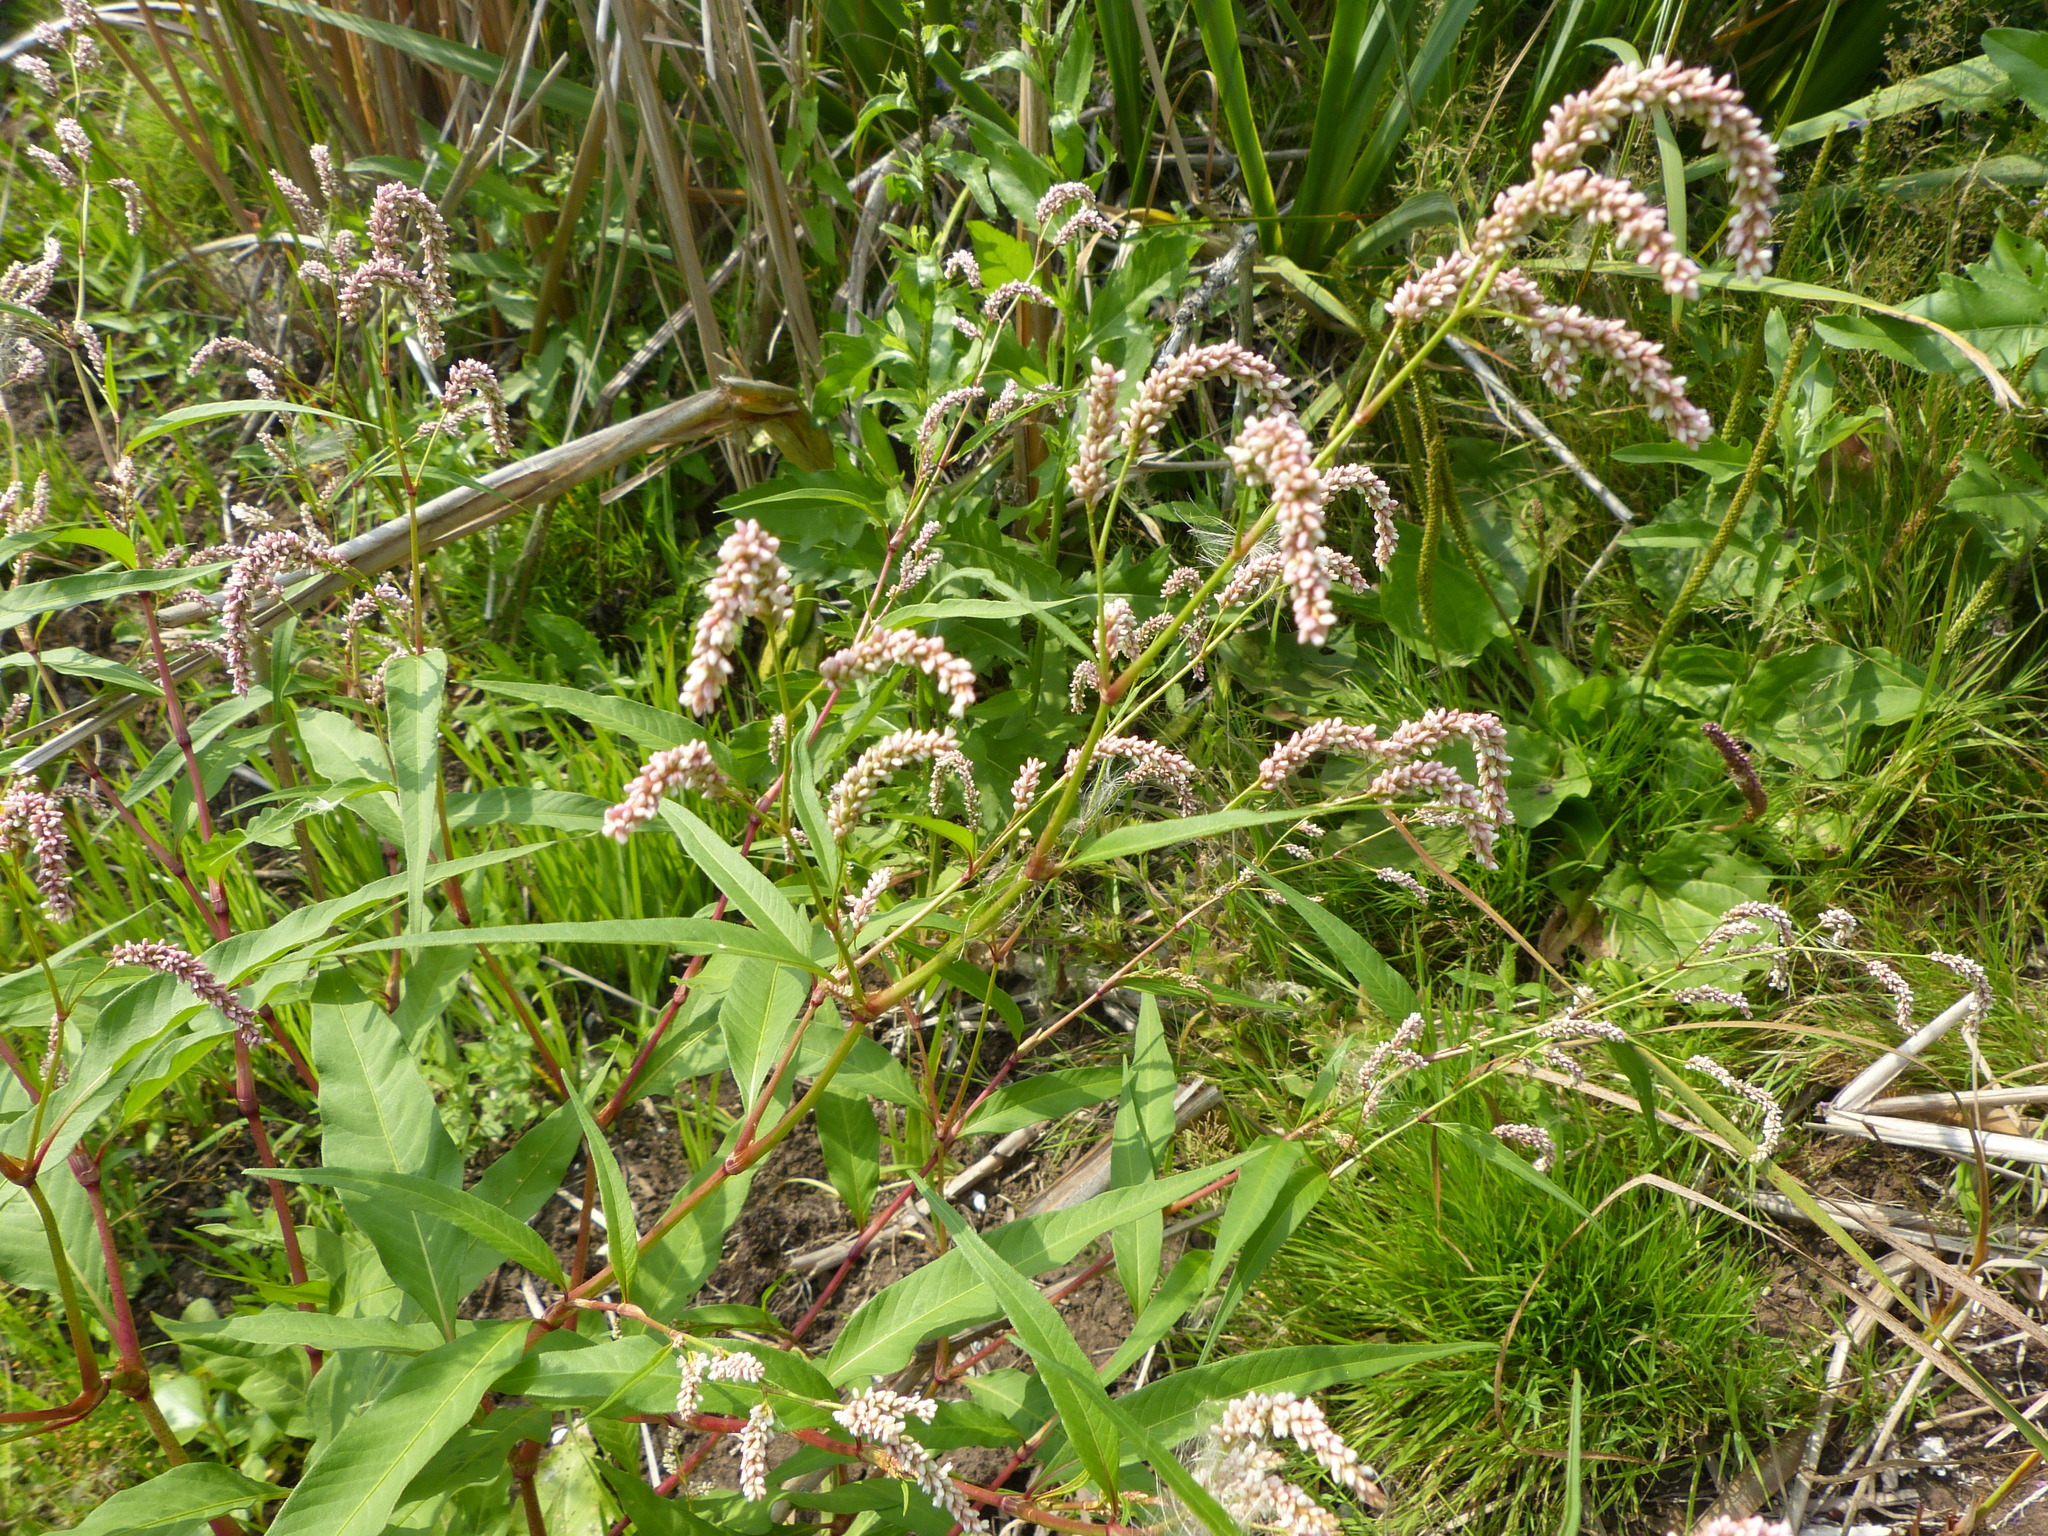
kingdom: Plantae
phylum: Tracheophyta
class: Magnoliopsida
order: Caryophyllales
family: Polygonaceae
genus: Persicaria
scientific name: Persicaria lapathifolia
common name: Curlytop knotweed
